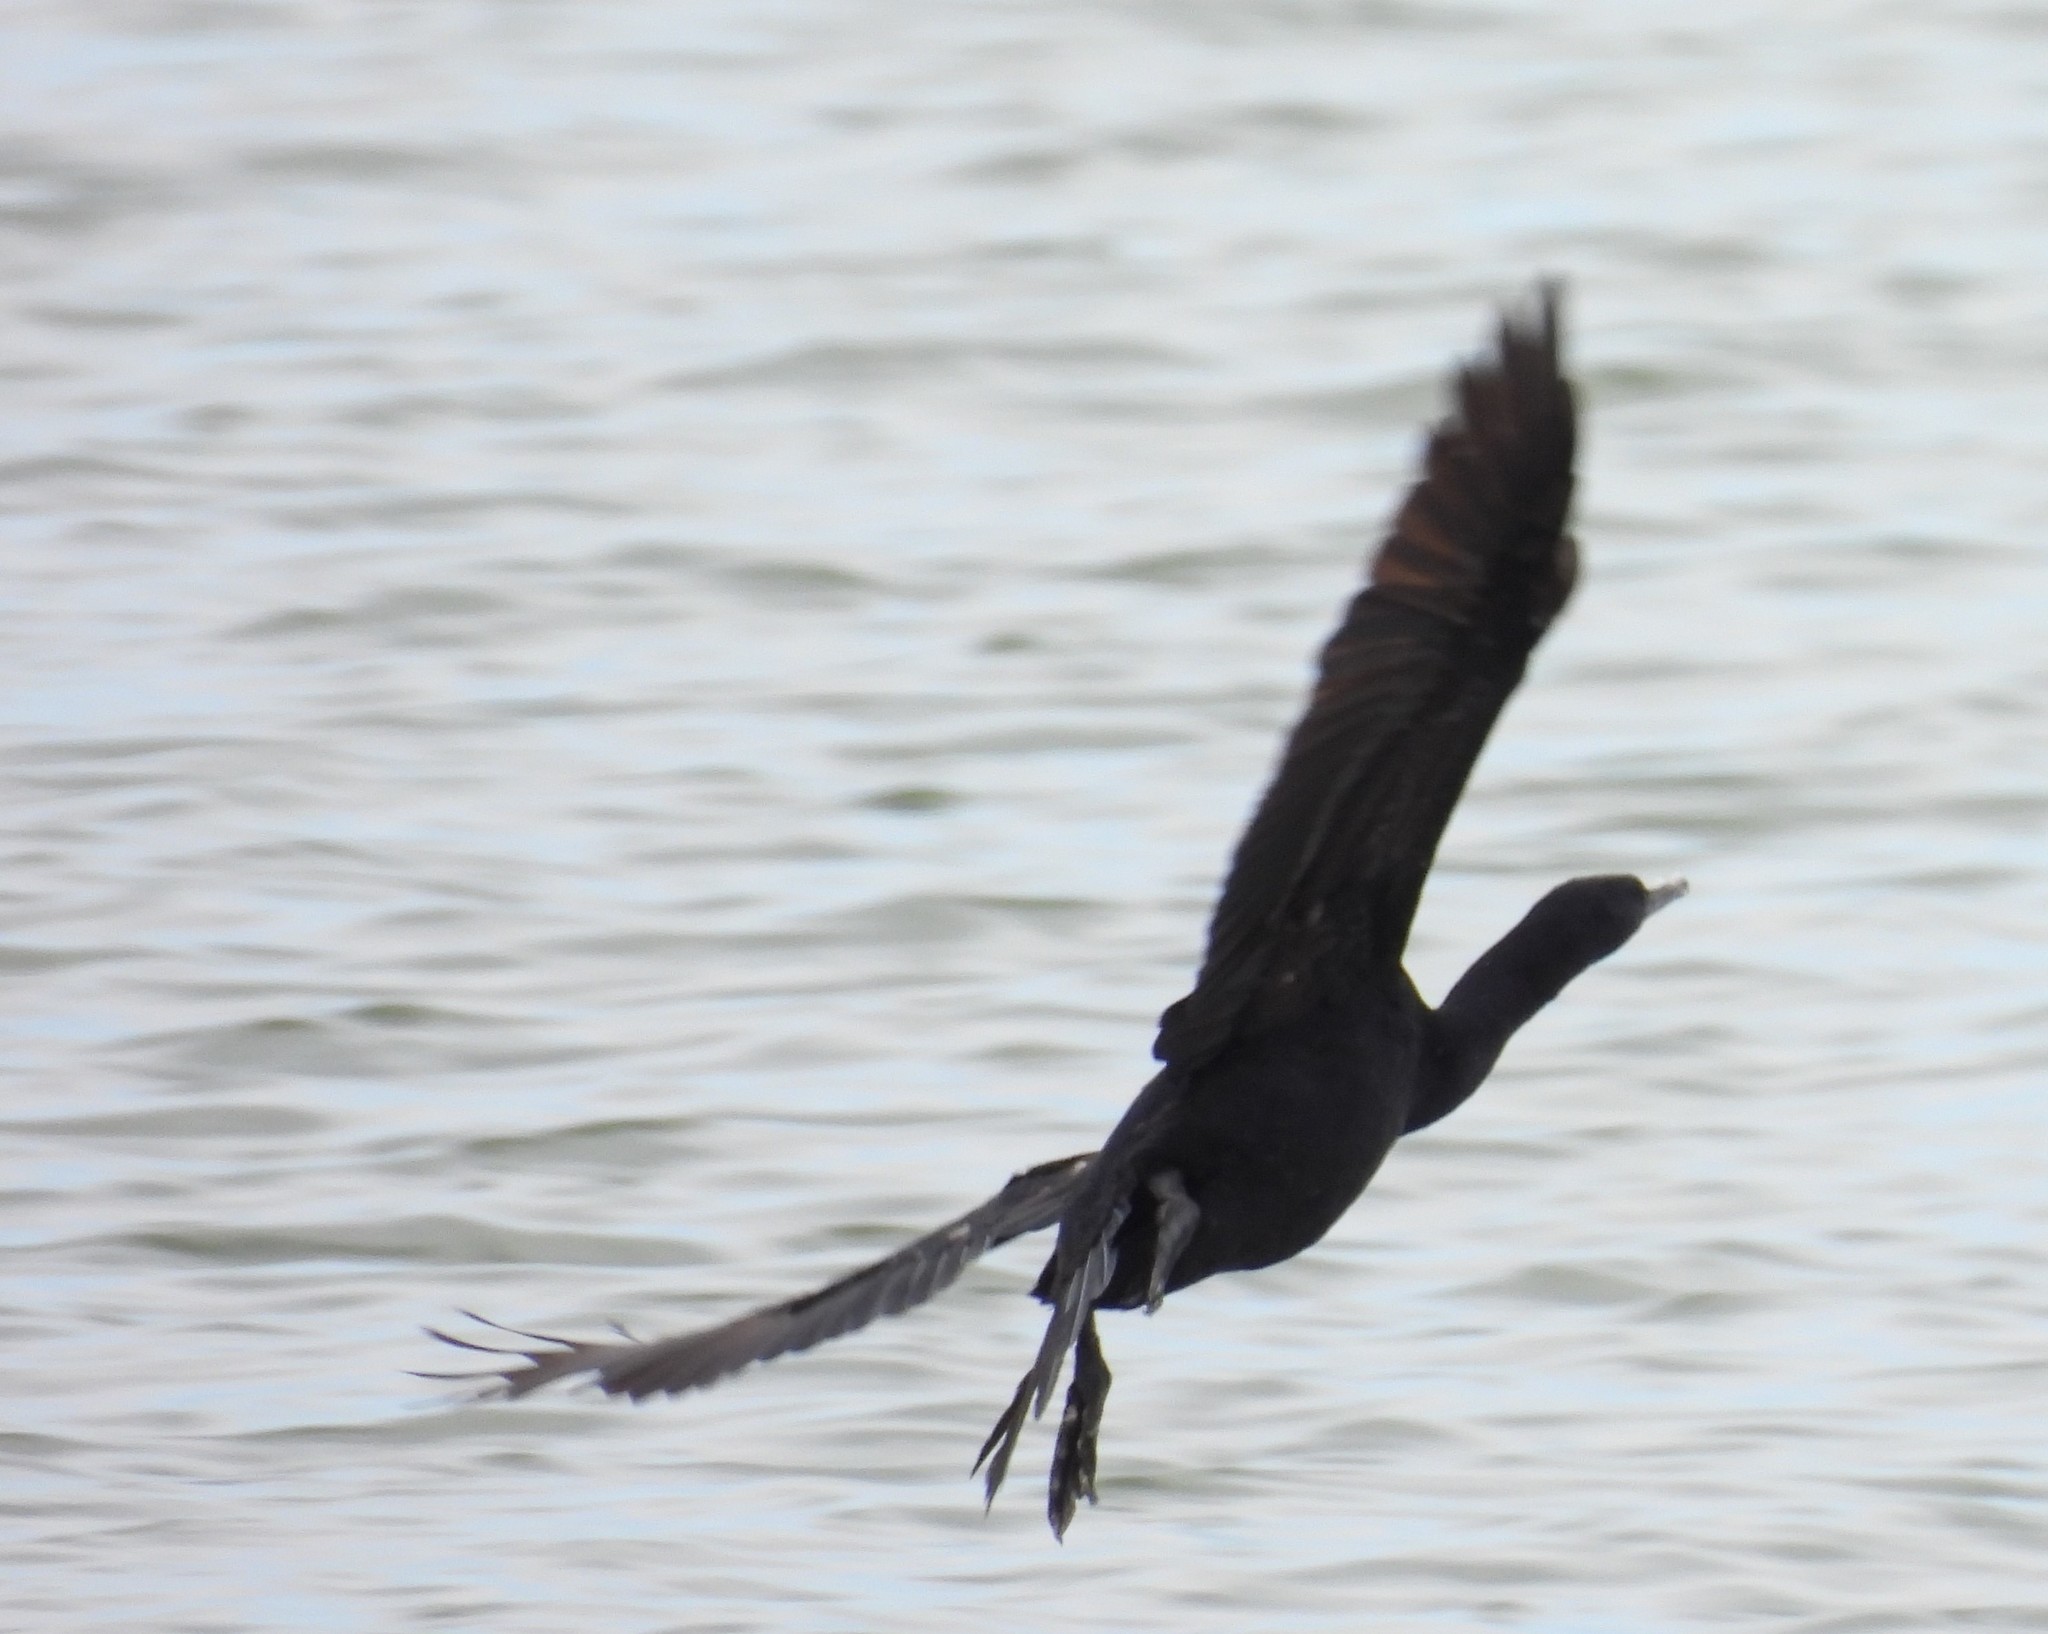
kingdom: Animalia
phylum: Chordata
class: Aves
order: Suliformes
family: Phalacrocoracidae
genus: Phalacrocorax
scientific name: Phalacrocorax pelagicus
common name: Pelagic cormorant
